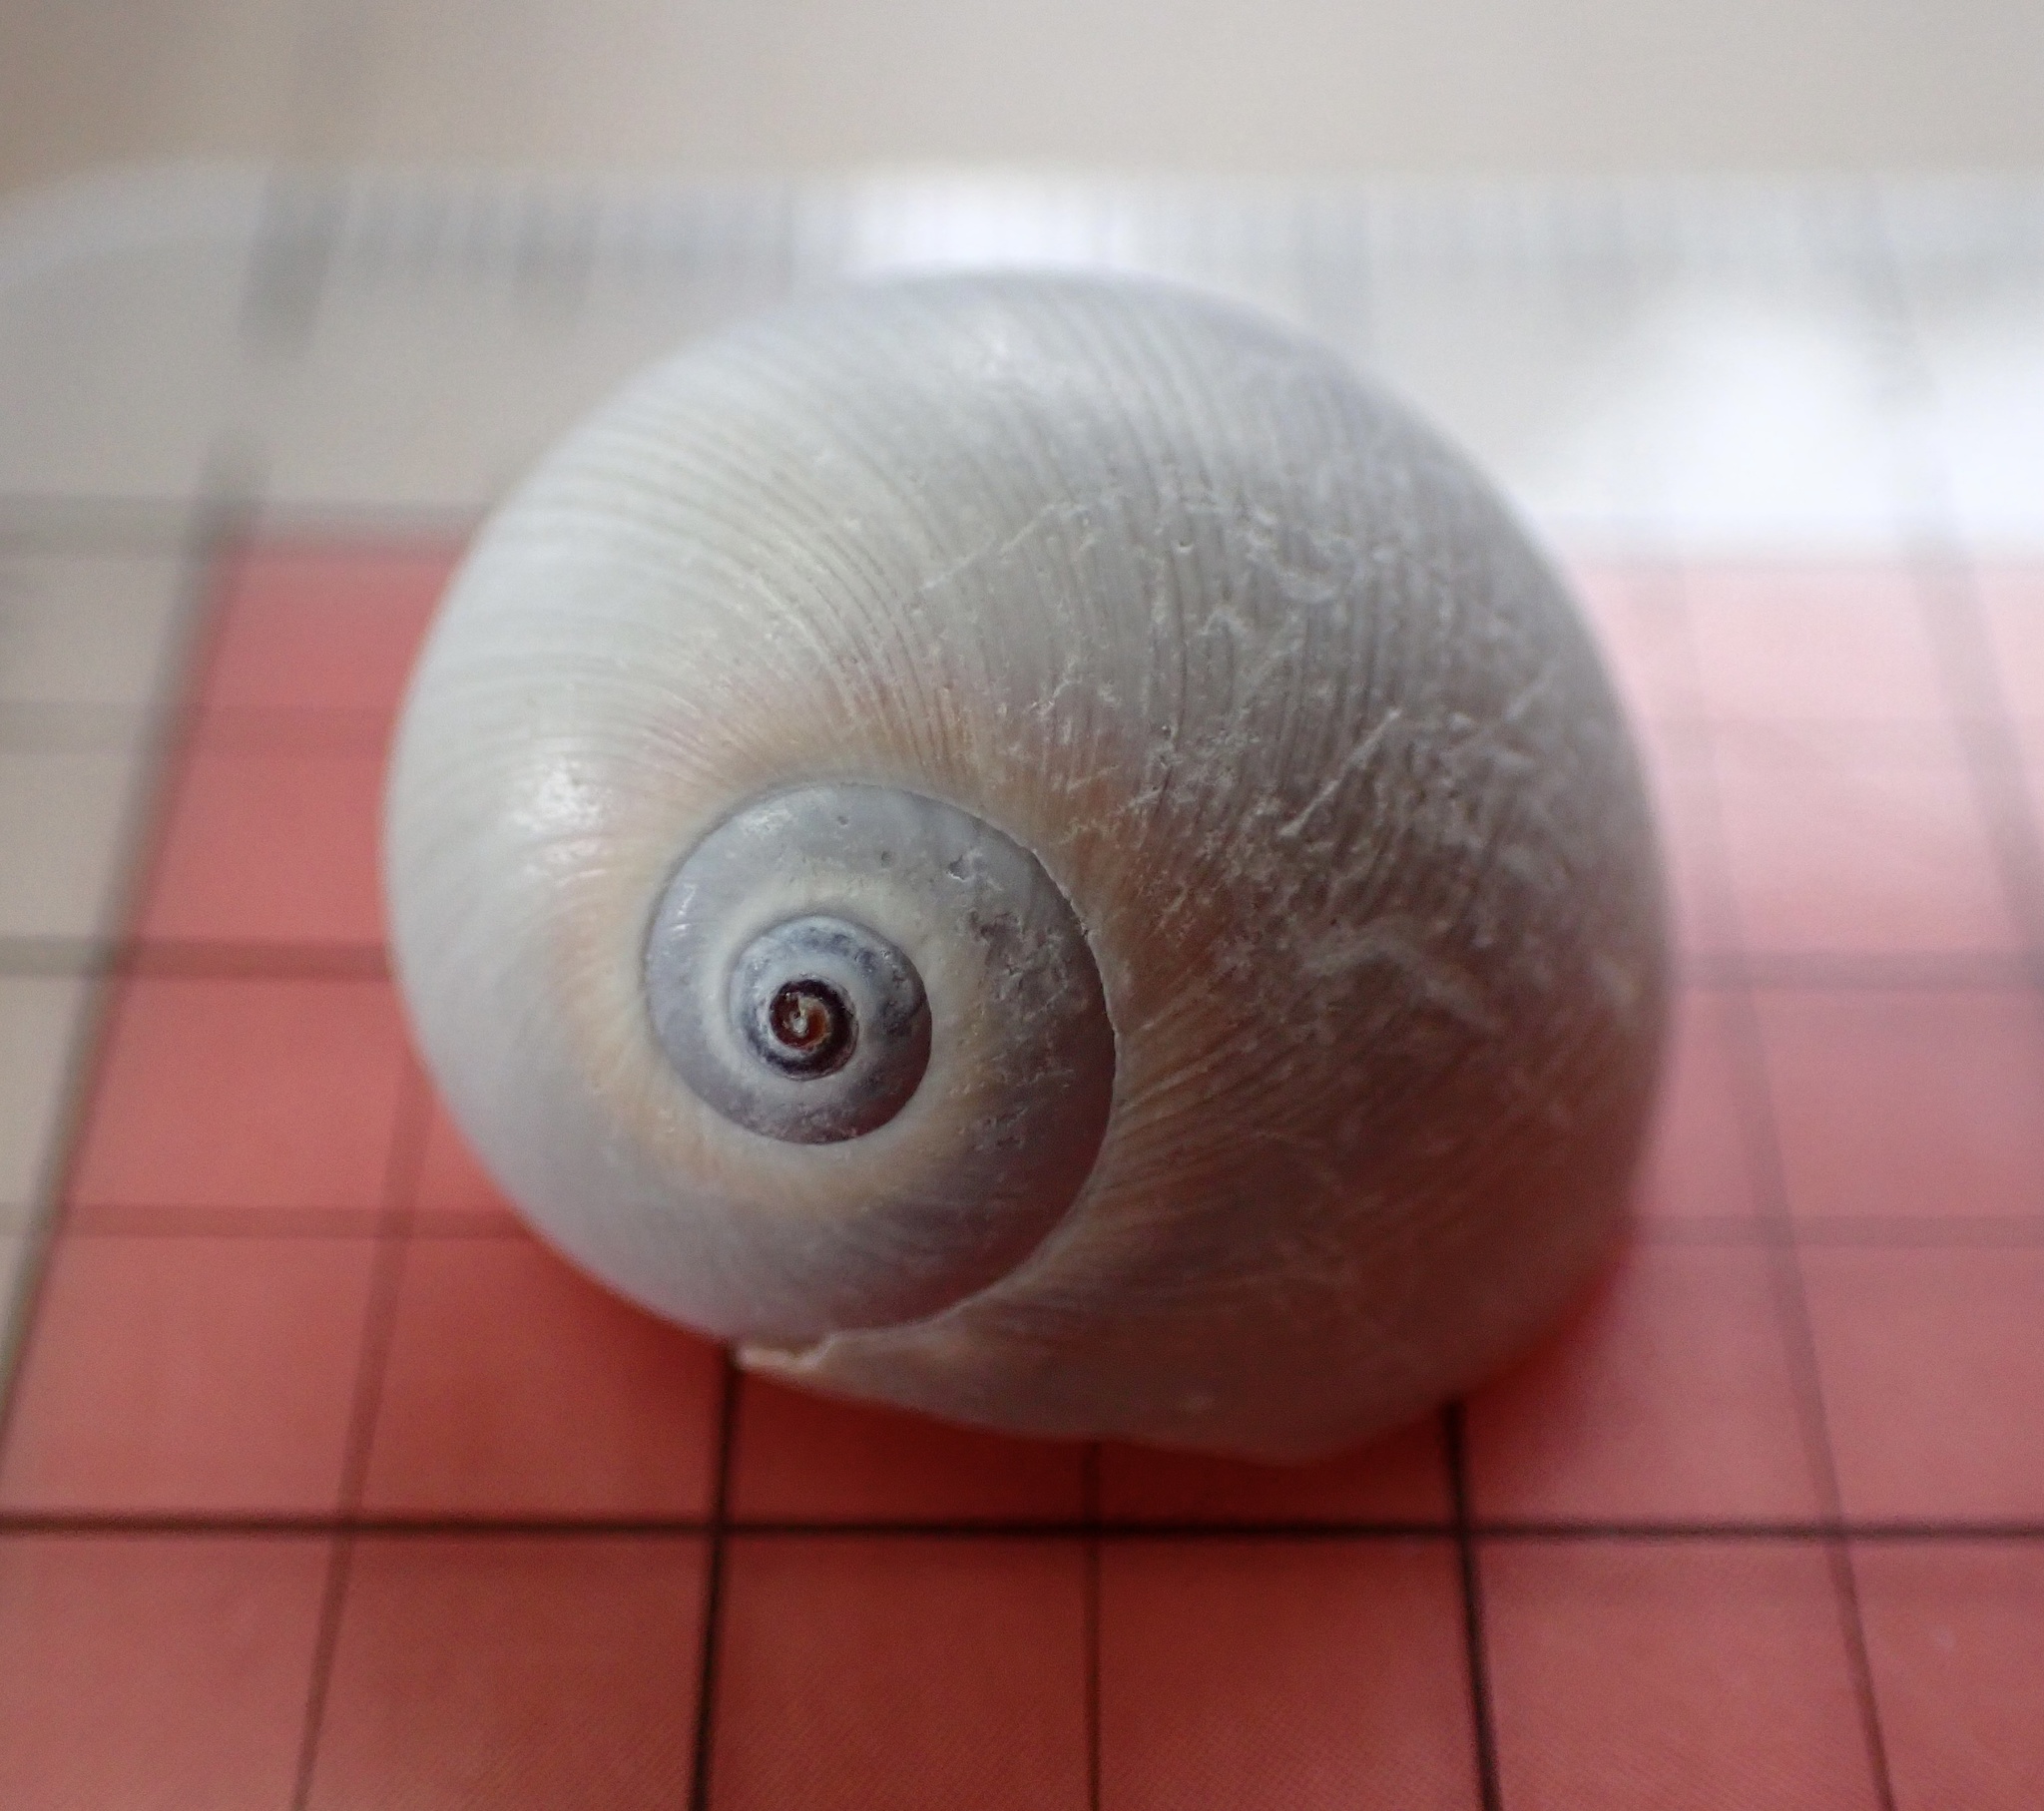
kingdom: Animalia
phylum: Mollusca
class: Gastropoda
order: Littorinimorpha
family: Naticidae
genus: Neverita
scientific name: Neverita duplicata
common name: Lobed moonsnail
